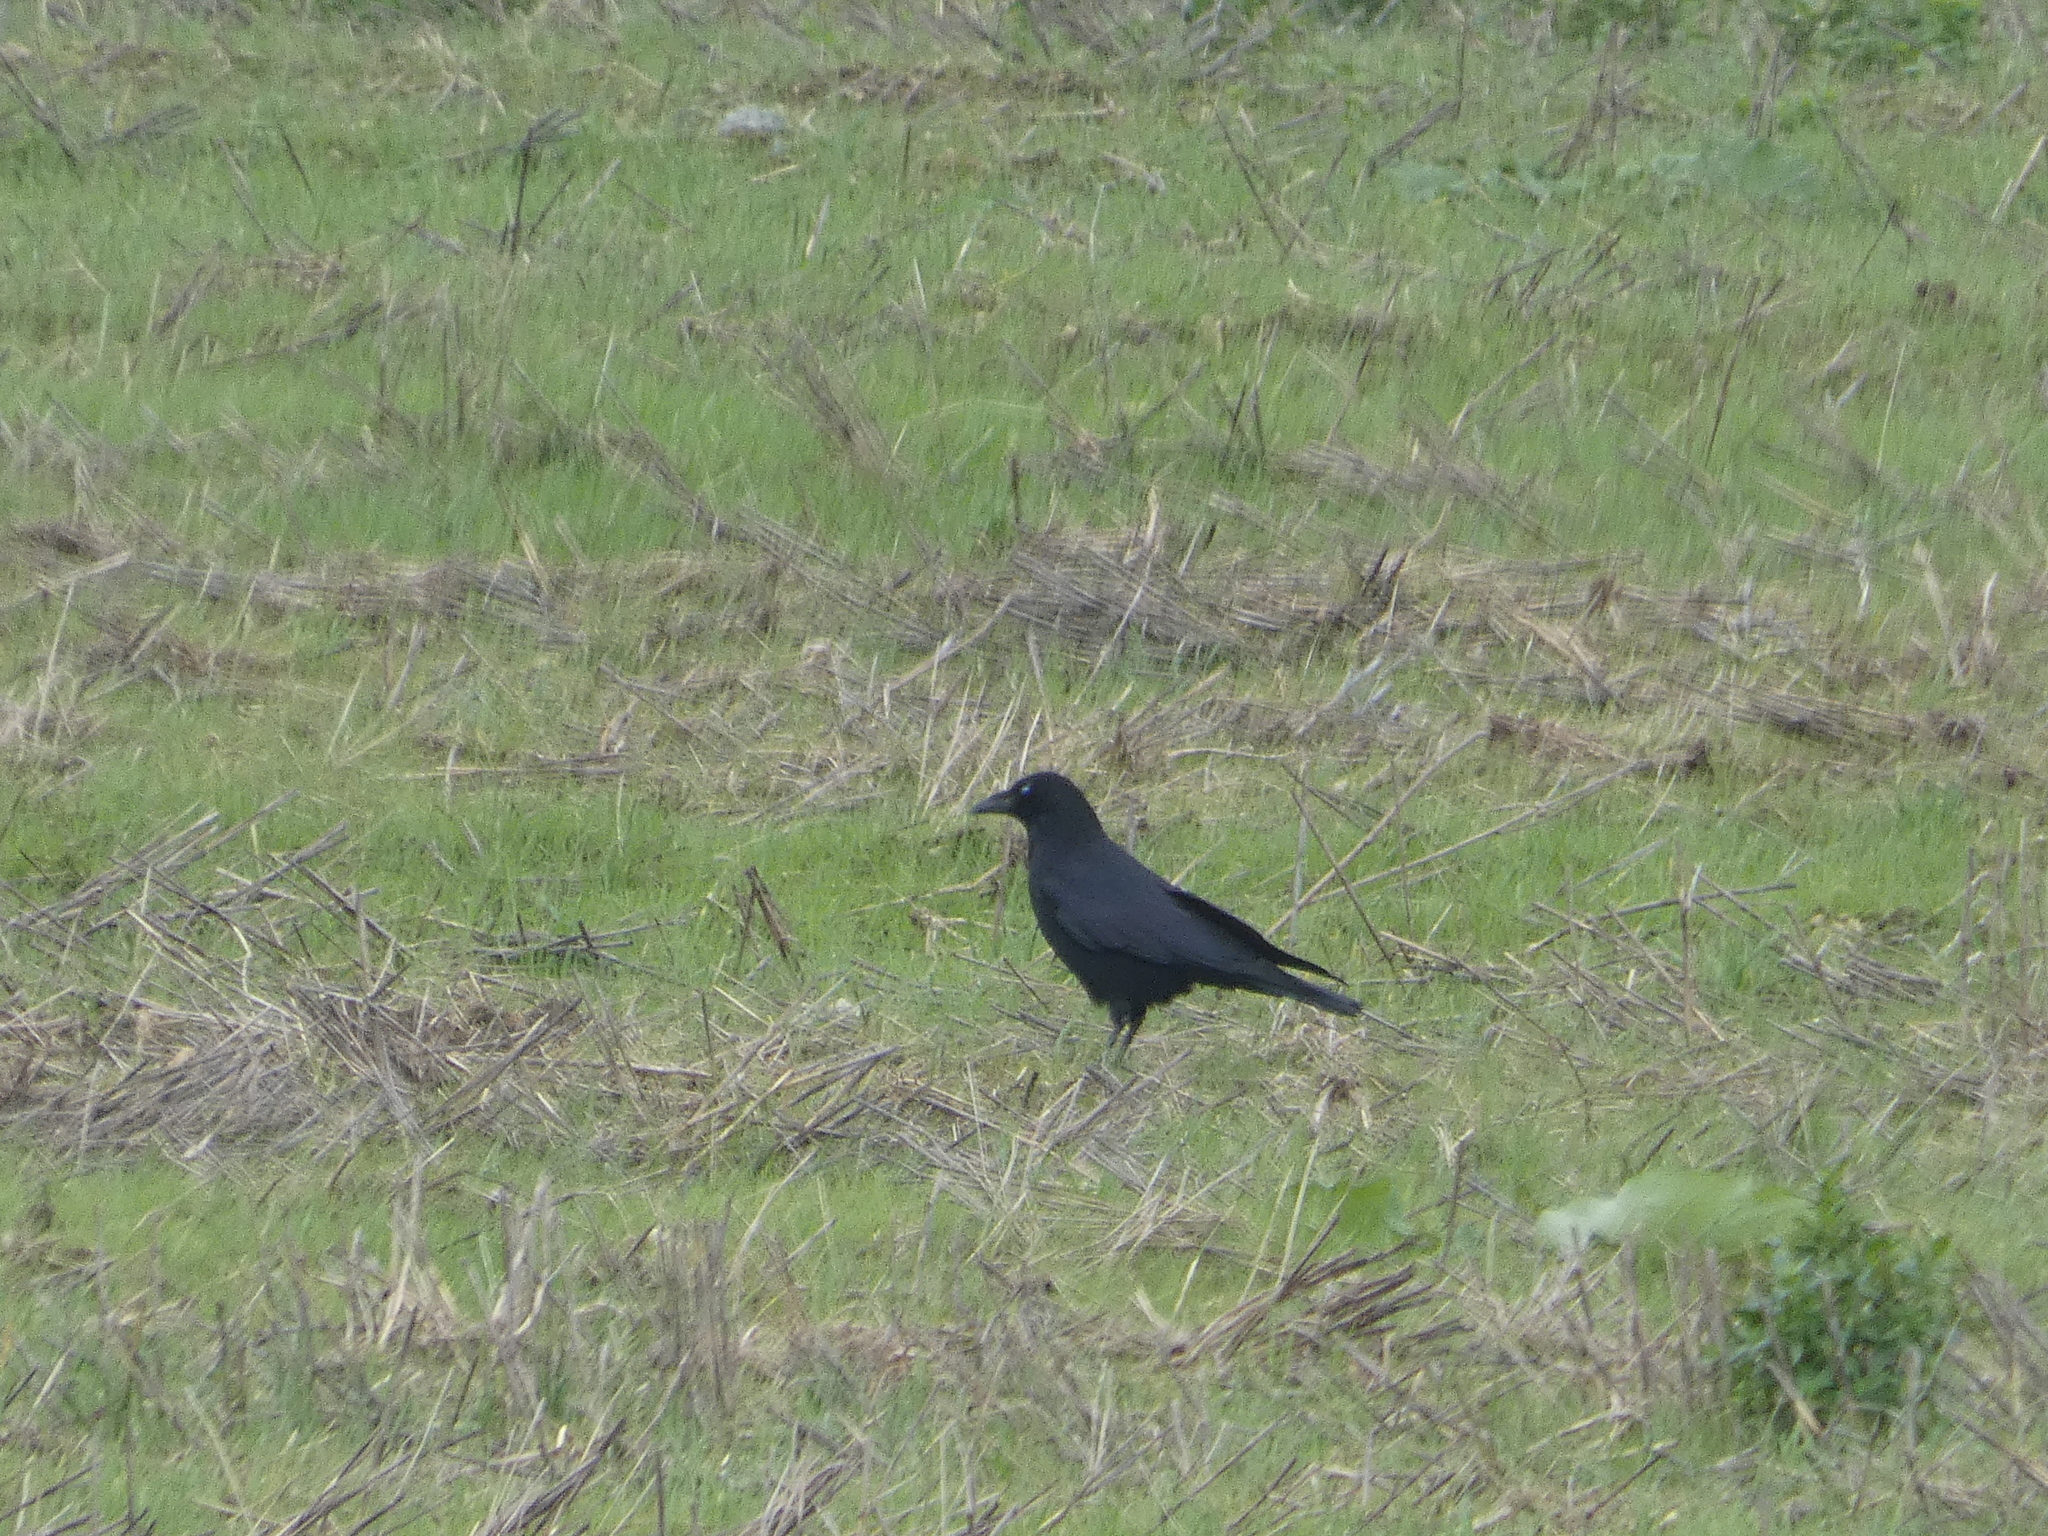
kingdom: Animalia
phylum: Chordata
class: Aves
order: Passeriformes
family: Corvidae
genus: Corvus
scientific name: Corvus corone
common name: Carrion crow
